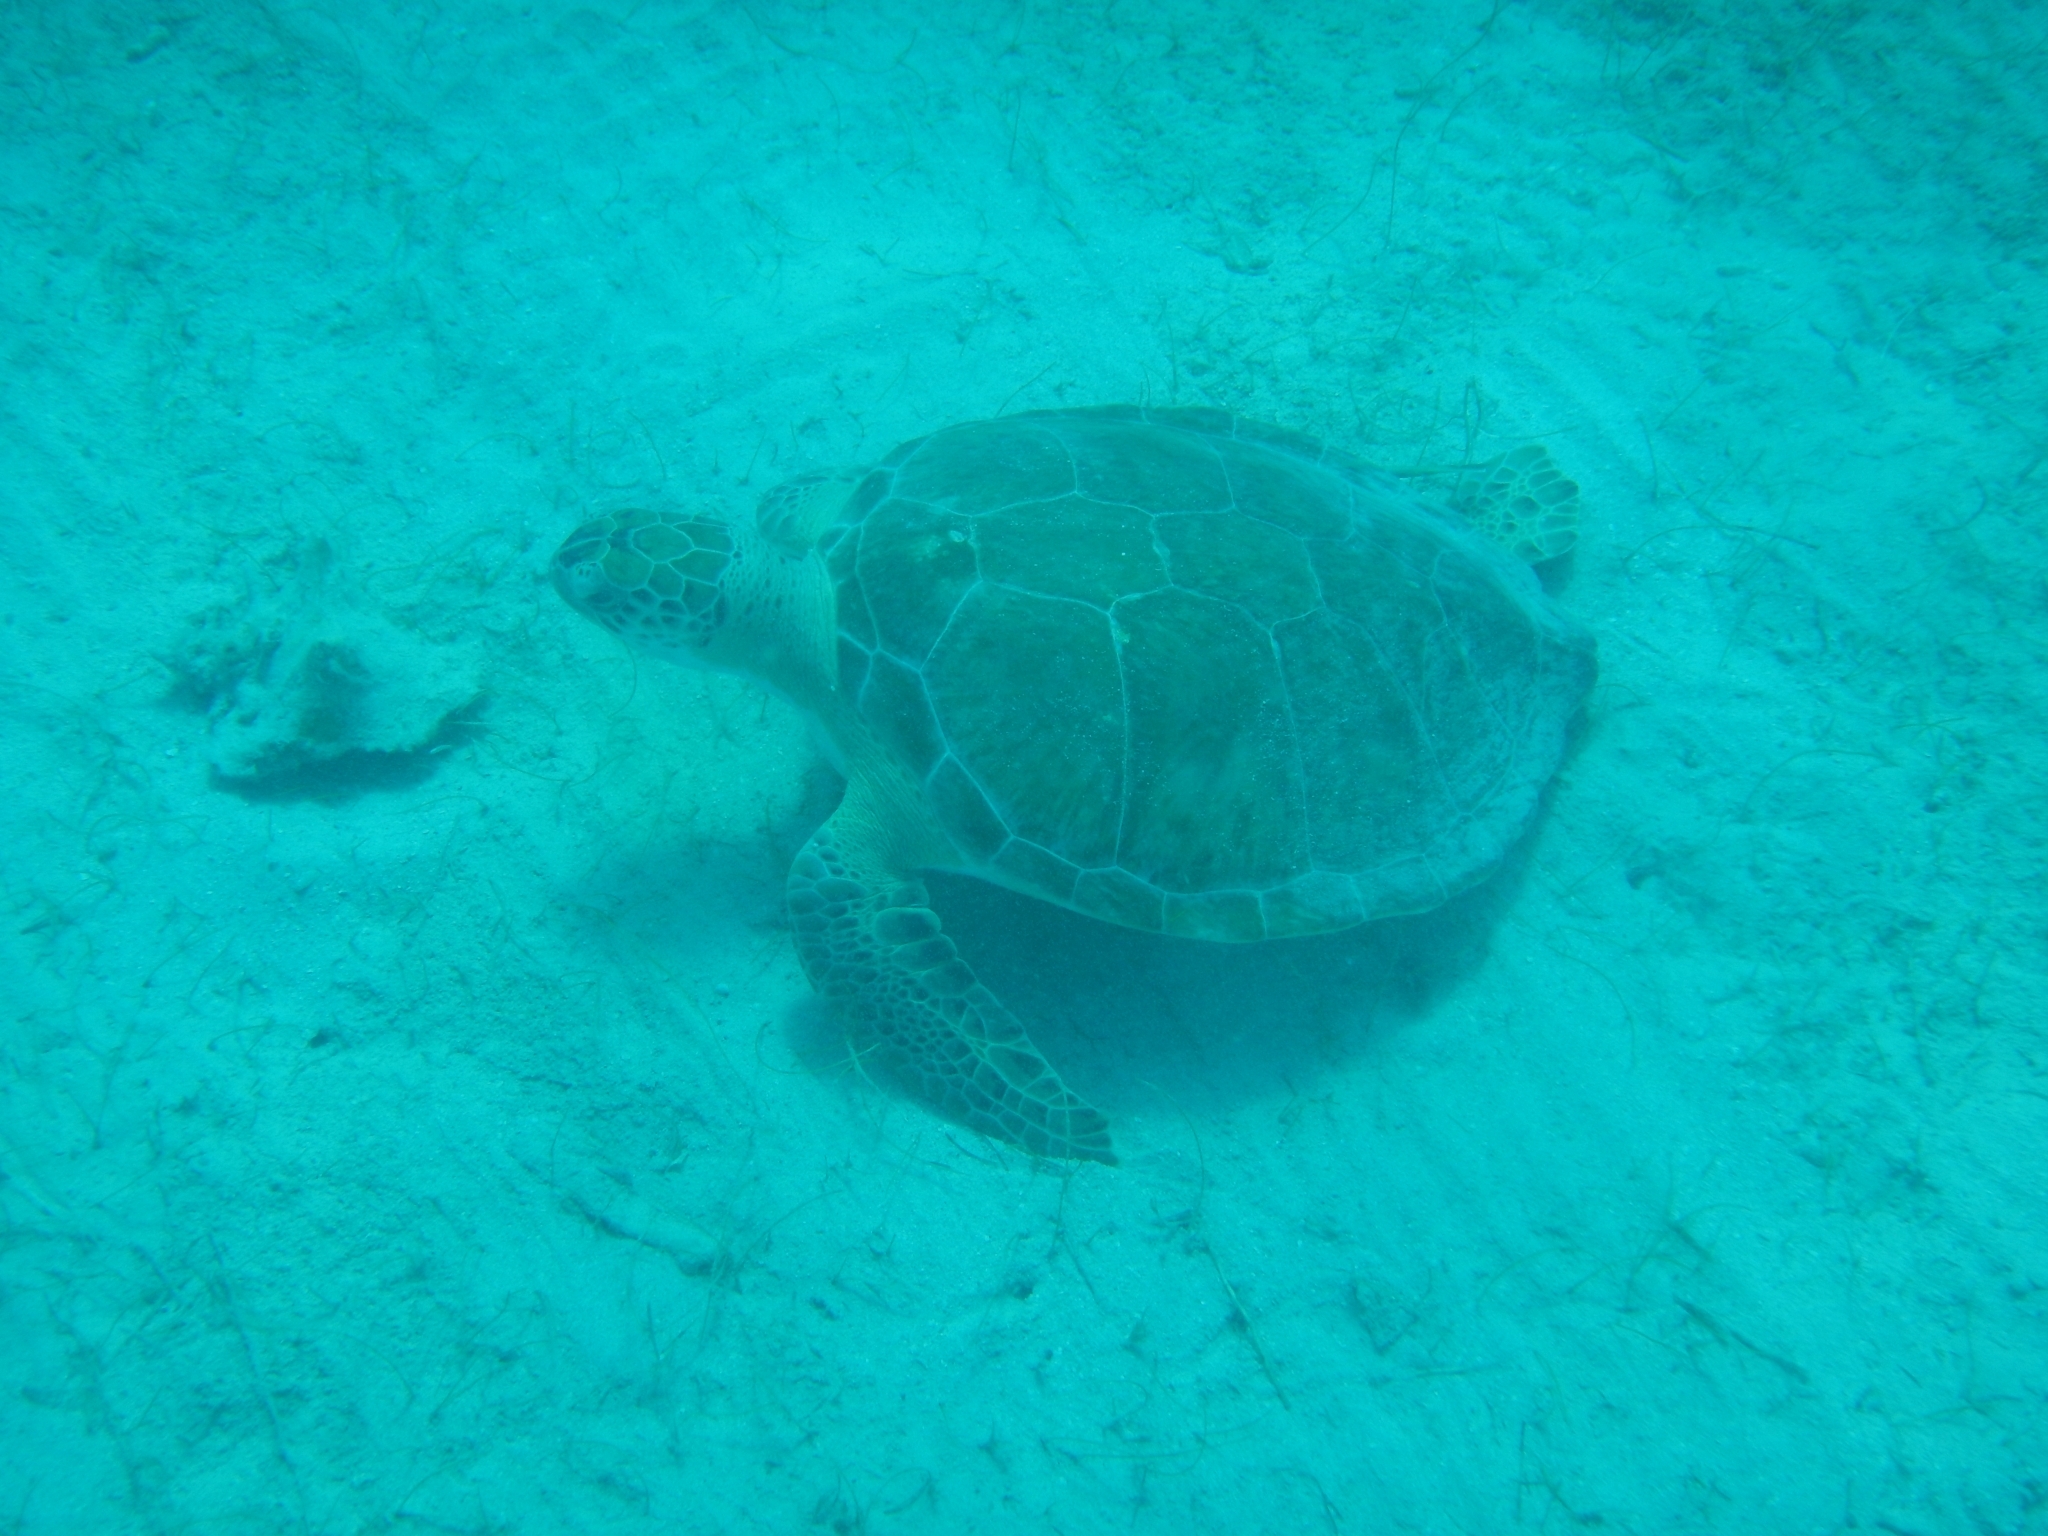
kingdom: Animalia
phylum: Chordata
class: Testudines
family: Cheloniidae
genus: Chelonia
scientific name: Chelonia mydas
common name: Green turtle
